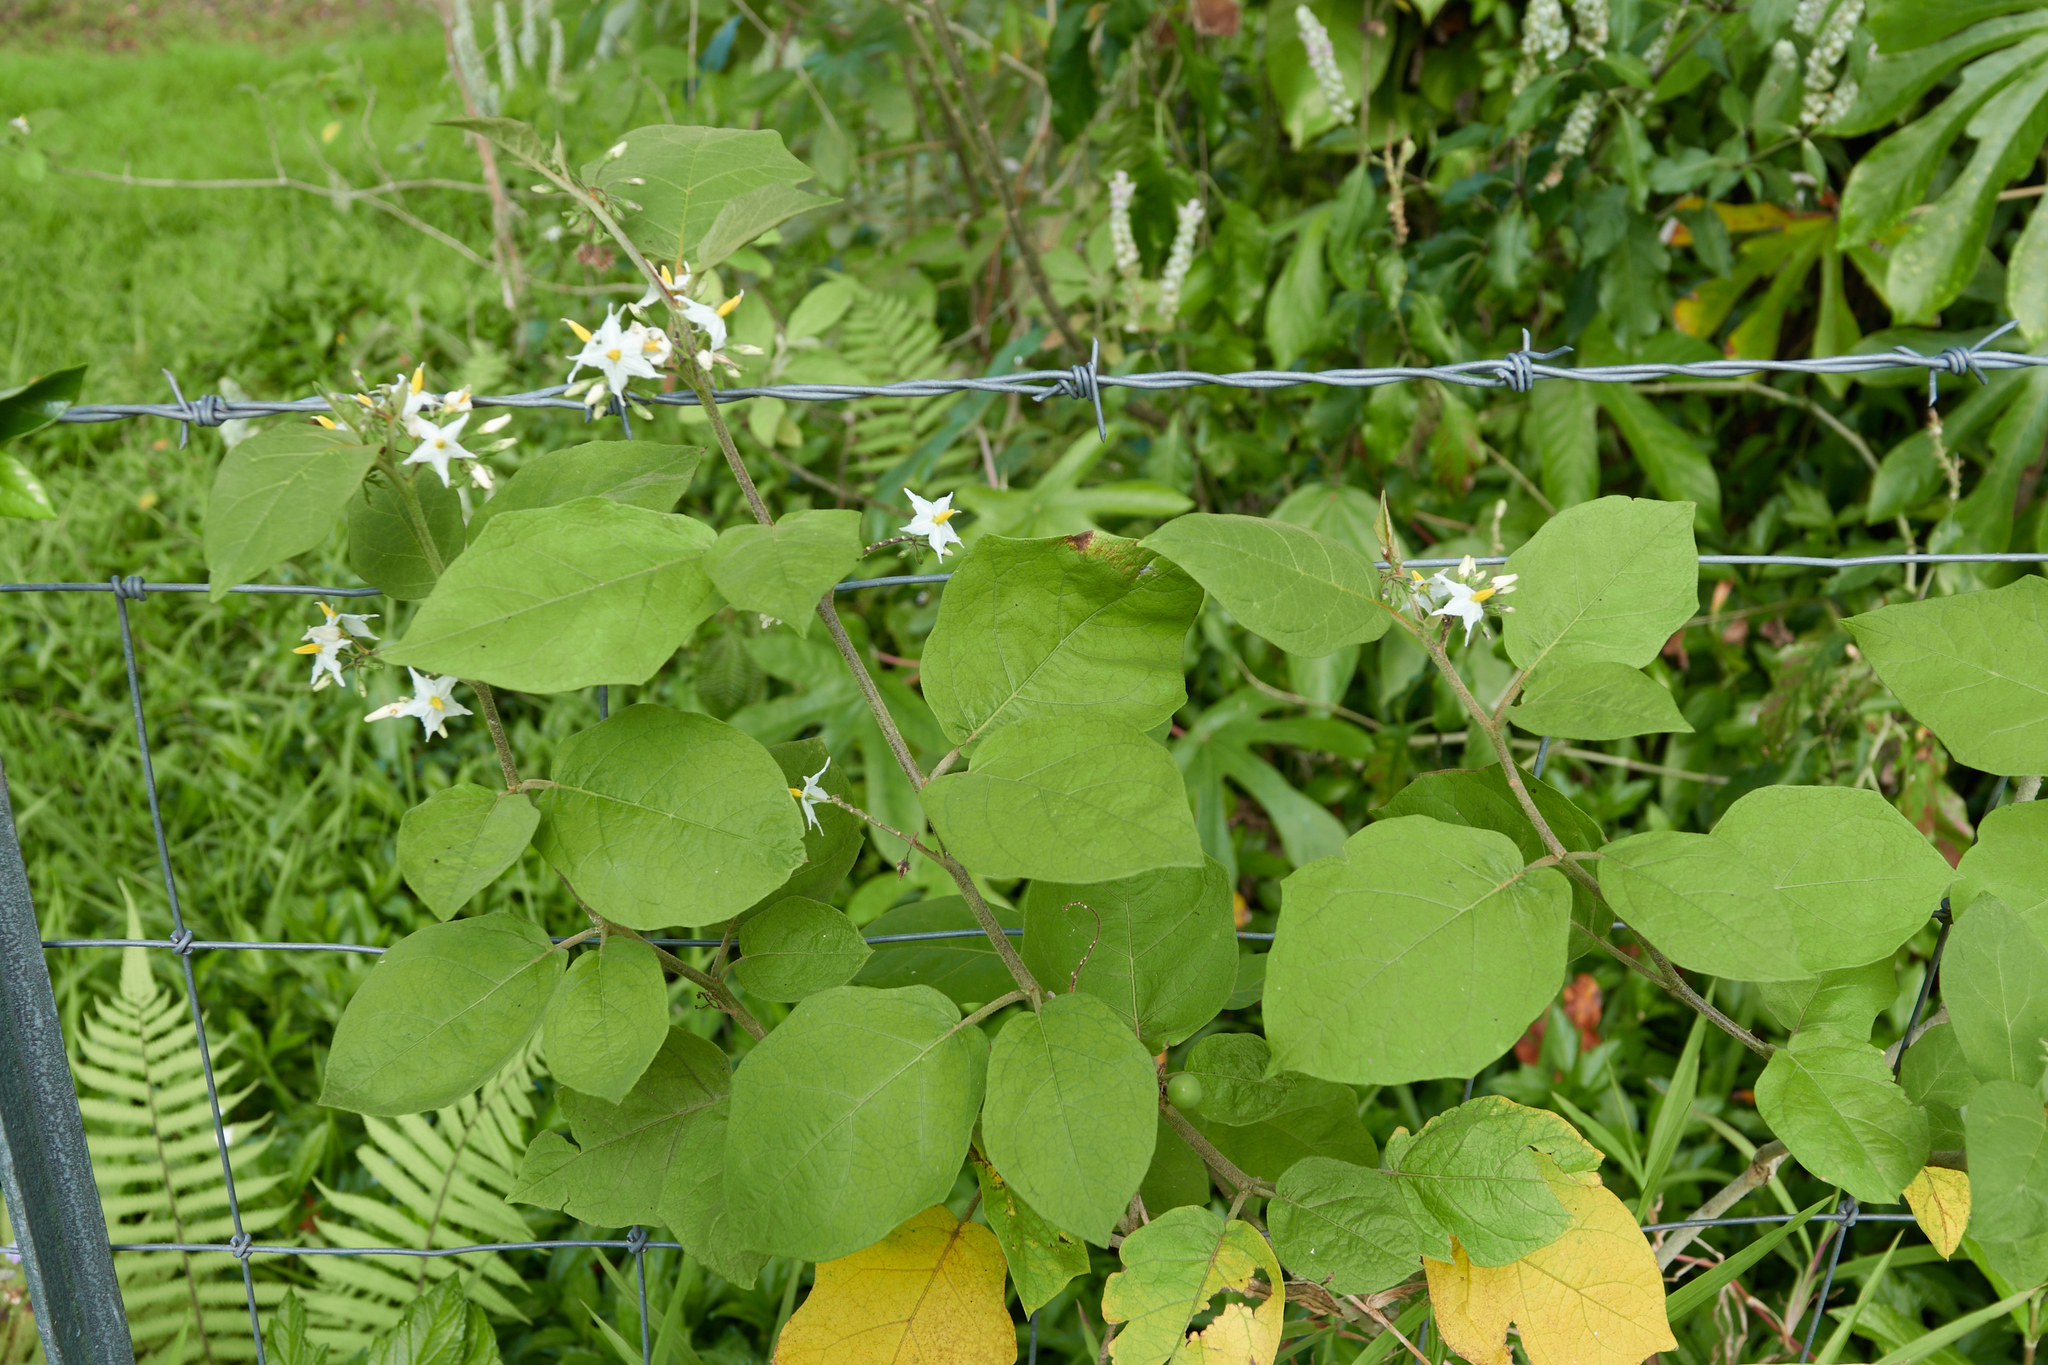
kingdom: Plantae
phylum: Tracheophyta
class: Magnoliopsida
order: Solanales
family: Solanaceae
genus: Solanum
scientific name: Solanum torvum
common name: Turkey berry
